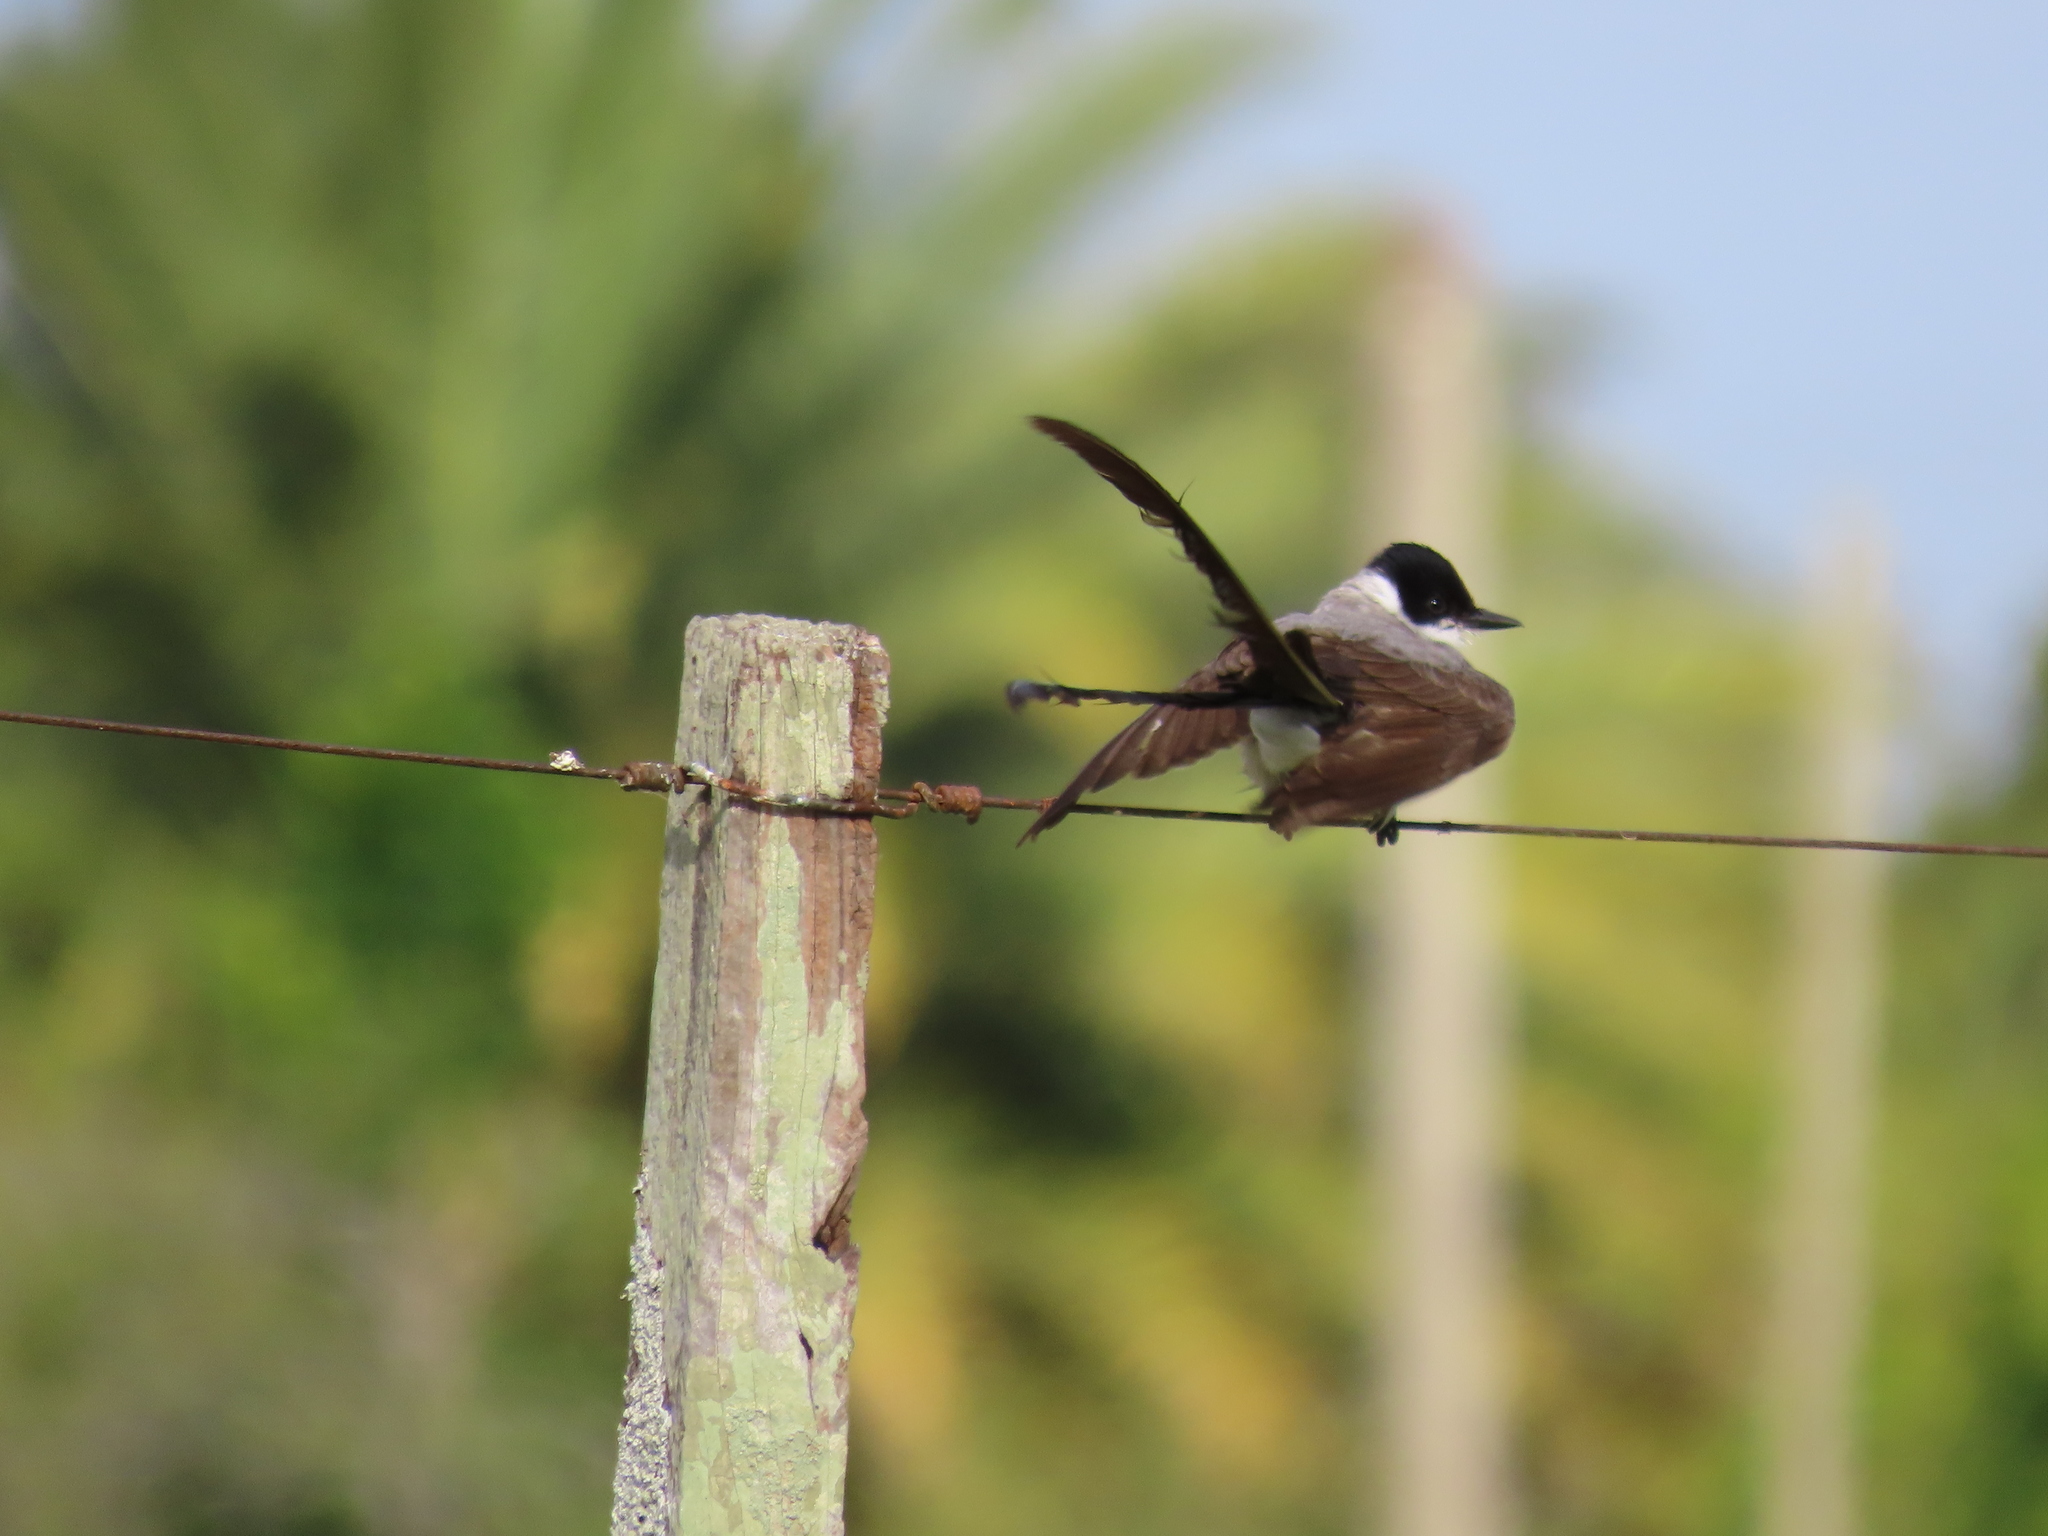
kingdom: Animalia
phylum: Chordata
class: Aves
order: Passeriformes
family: Tyrannidae
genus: Tyrannus
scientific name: Tyrannus savana
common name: Fork-tailed flycatcher
